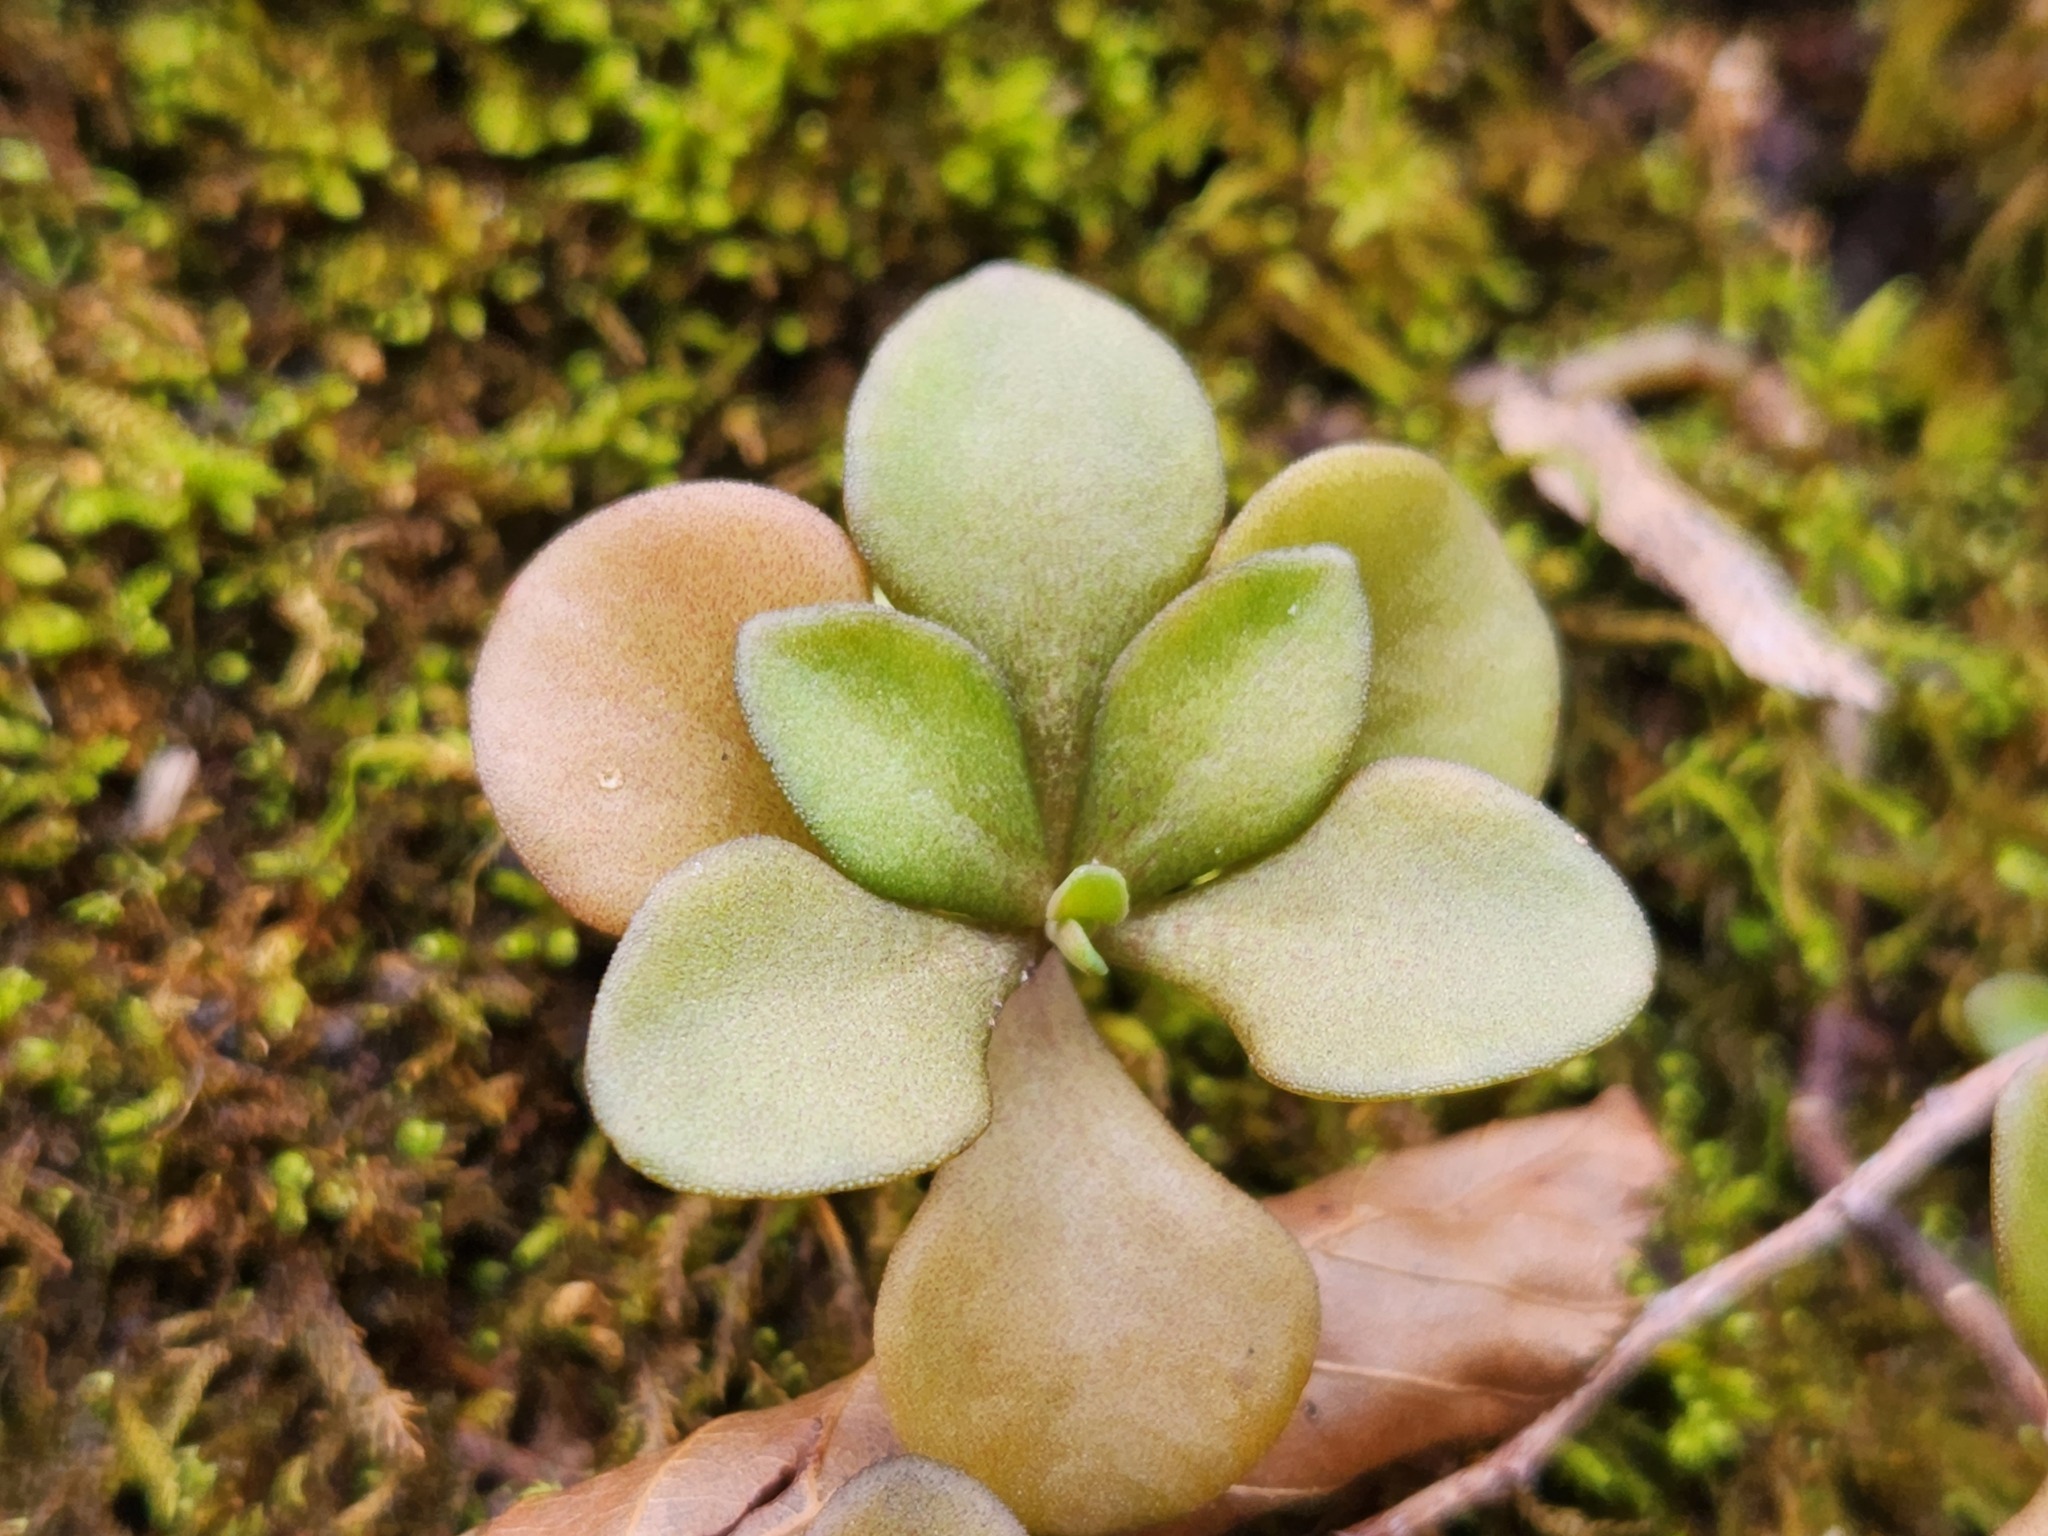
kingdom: Plantae
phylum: Tracheophyta
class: Magnoliopsida
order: Saxifragales
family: Crassulaceae
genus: Sedum
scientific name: Sedum ternatum
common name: Wild stonecrop
